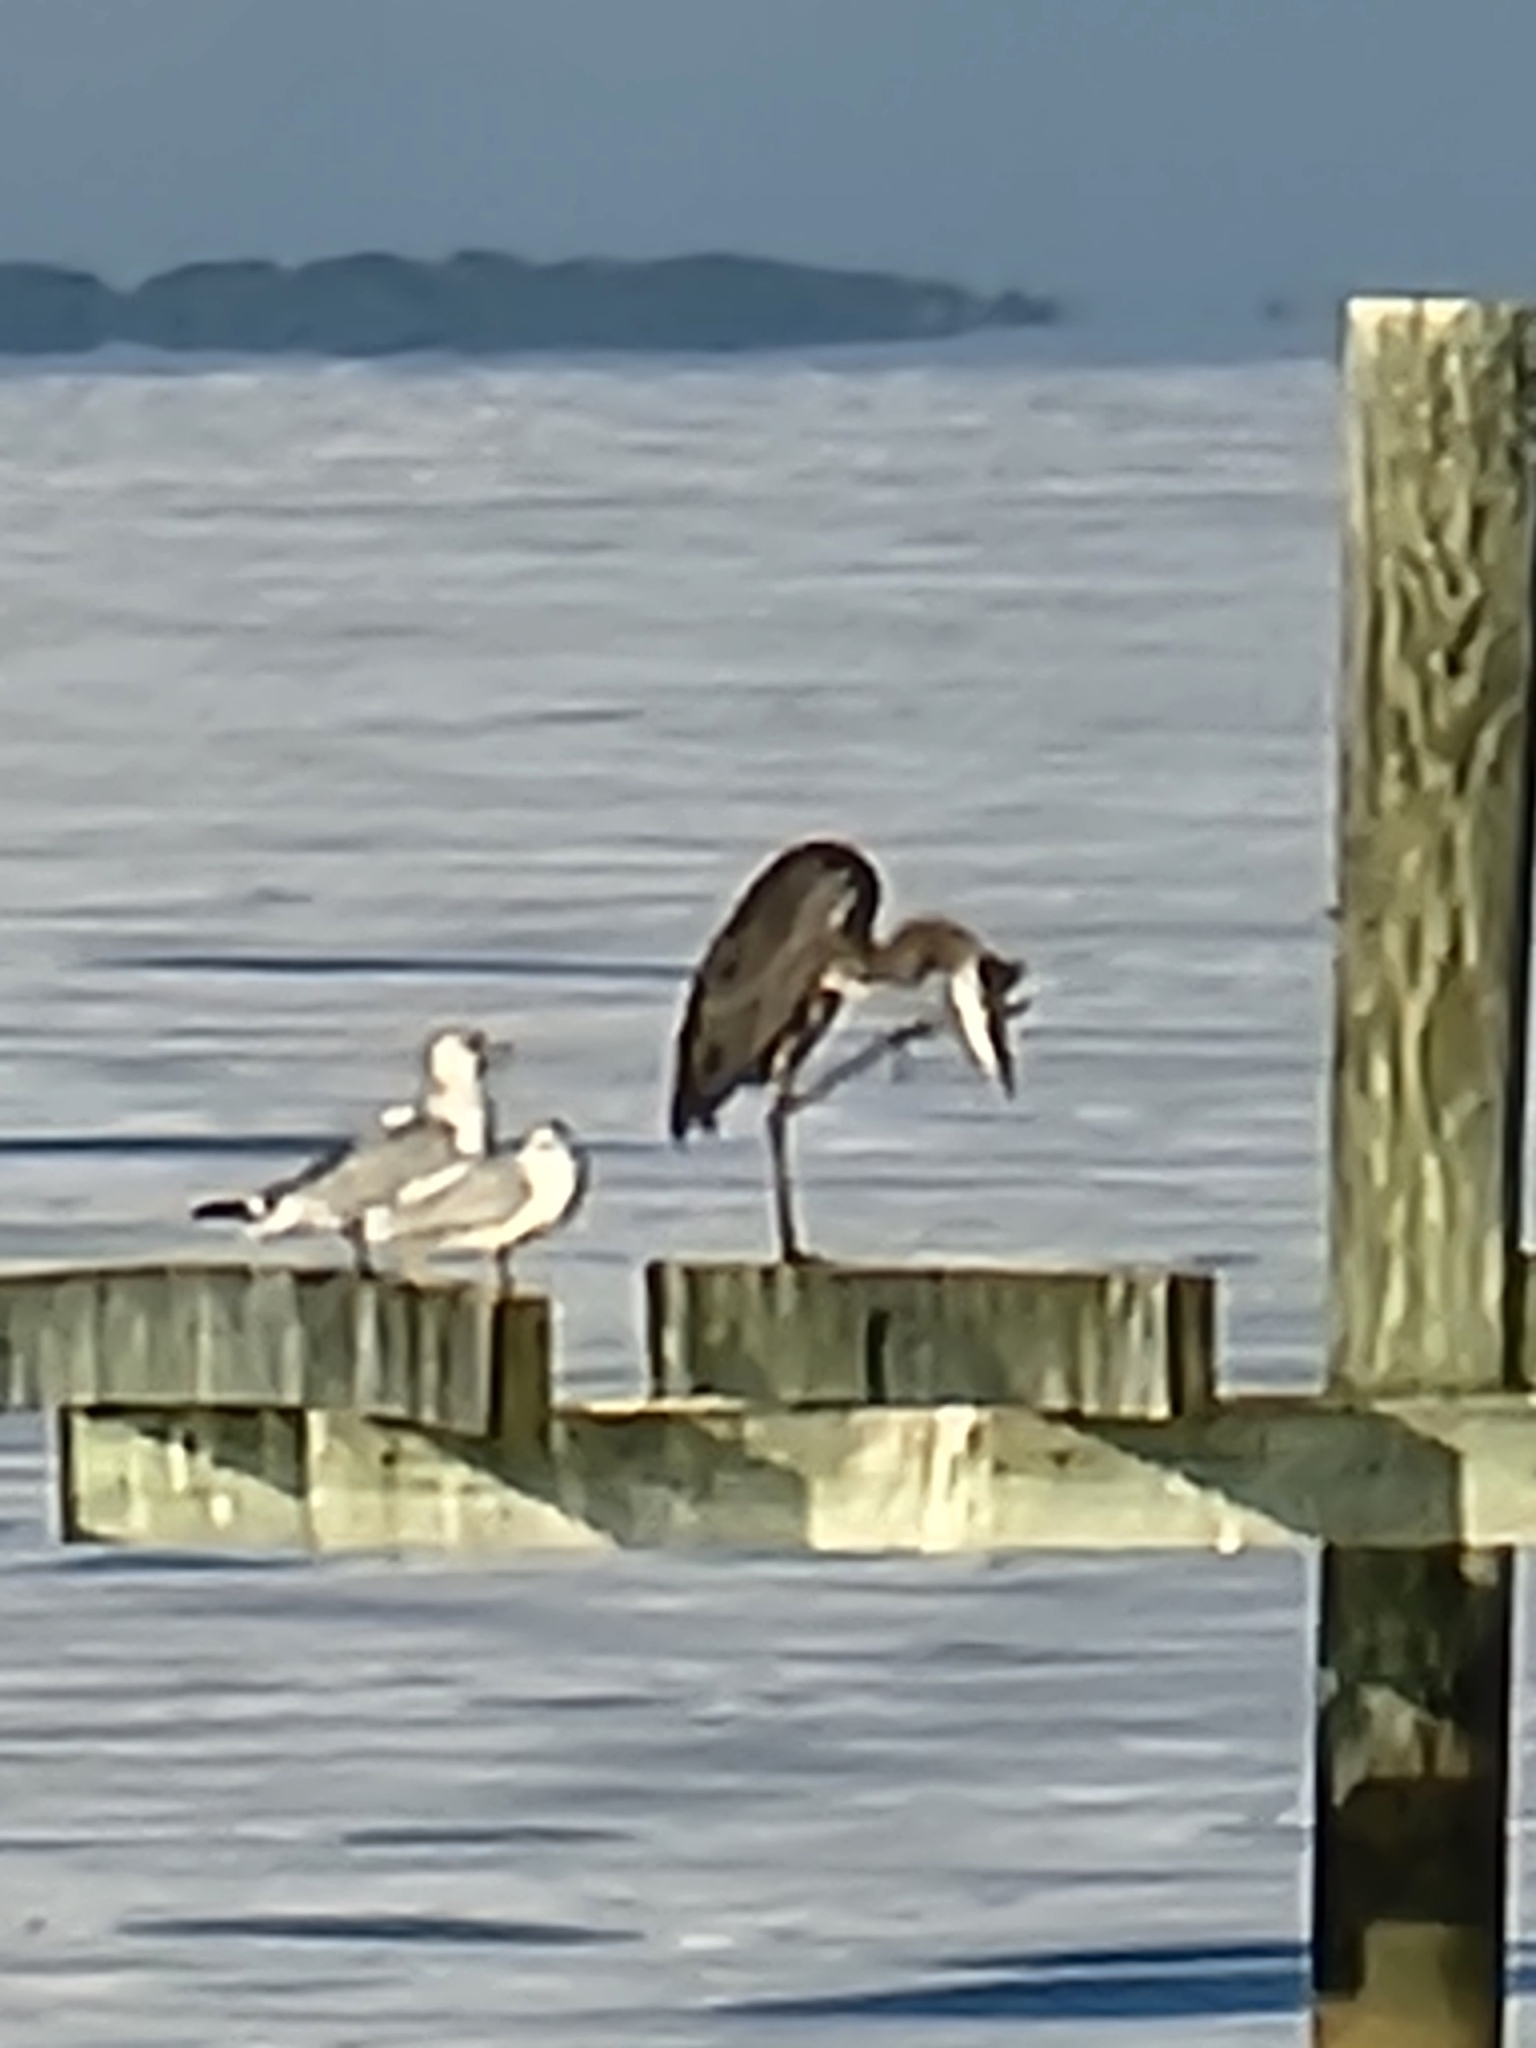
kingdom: Animalia
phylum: Chordata
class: Aves
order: Pelecaniformes
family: Ardeidae
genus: Ardea
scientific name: Ardea herodias
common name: Great blue heron
